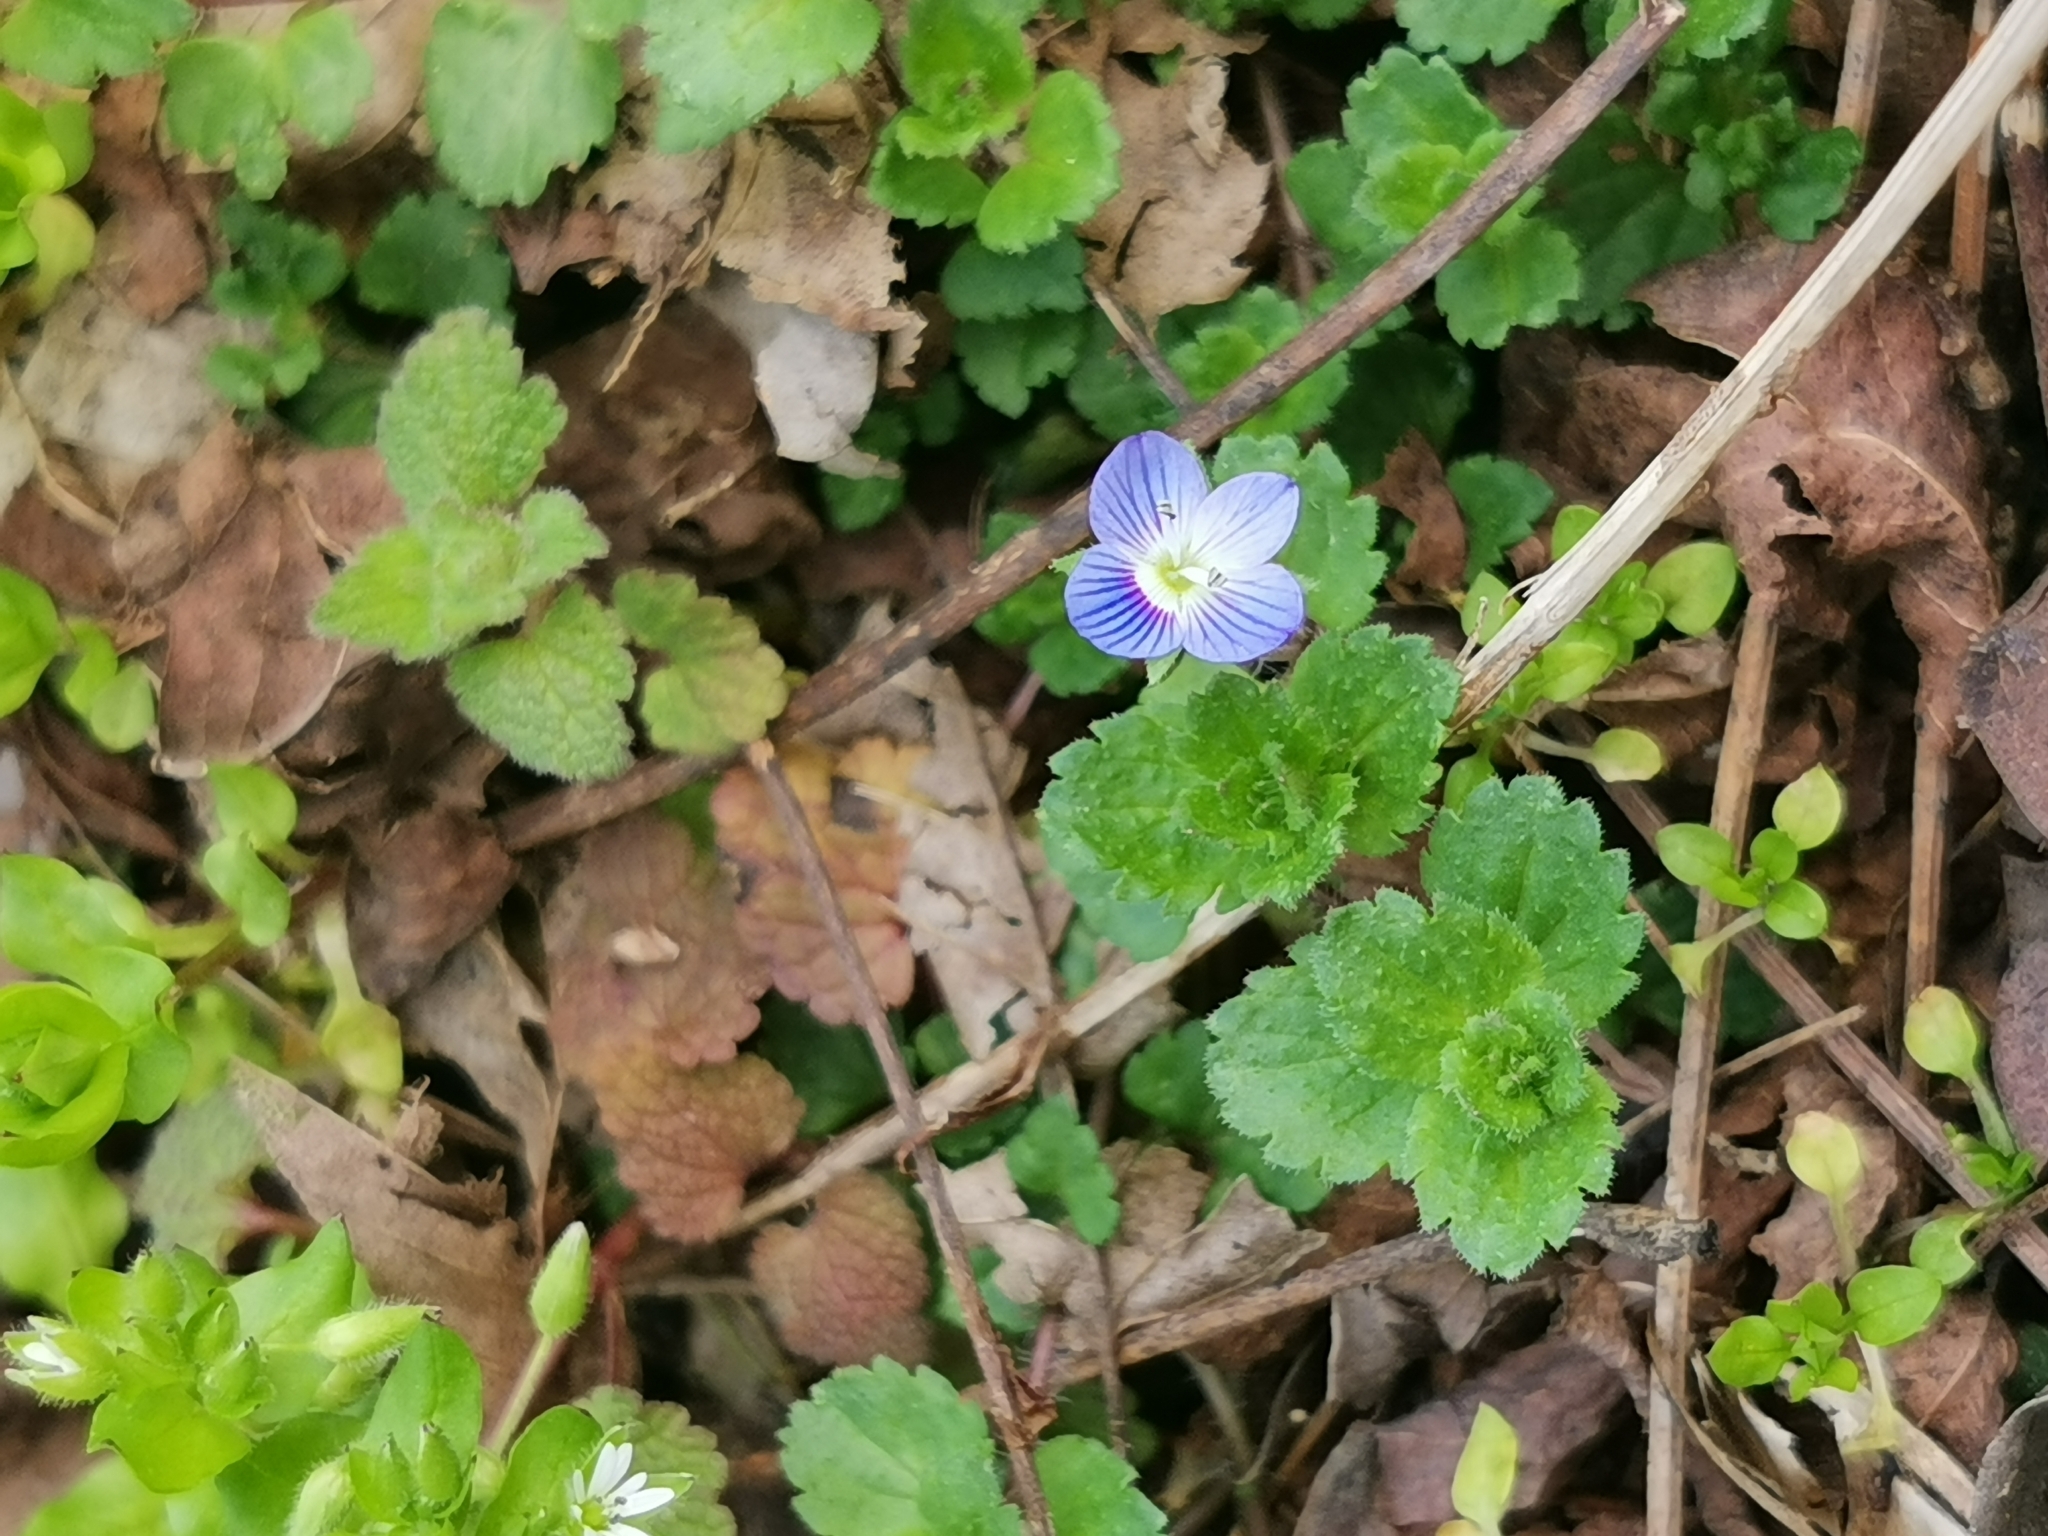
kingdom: Plantae
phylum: Tracheophyta
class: Magnoliopsida
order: Lamiales
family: Plantaginaceae
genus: Veronica
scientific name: Veronica persica
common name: Common field-speedwell
